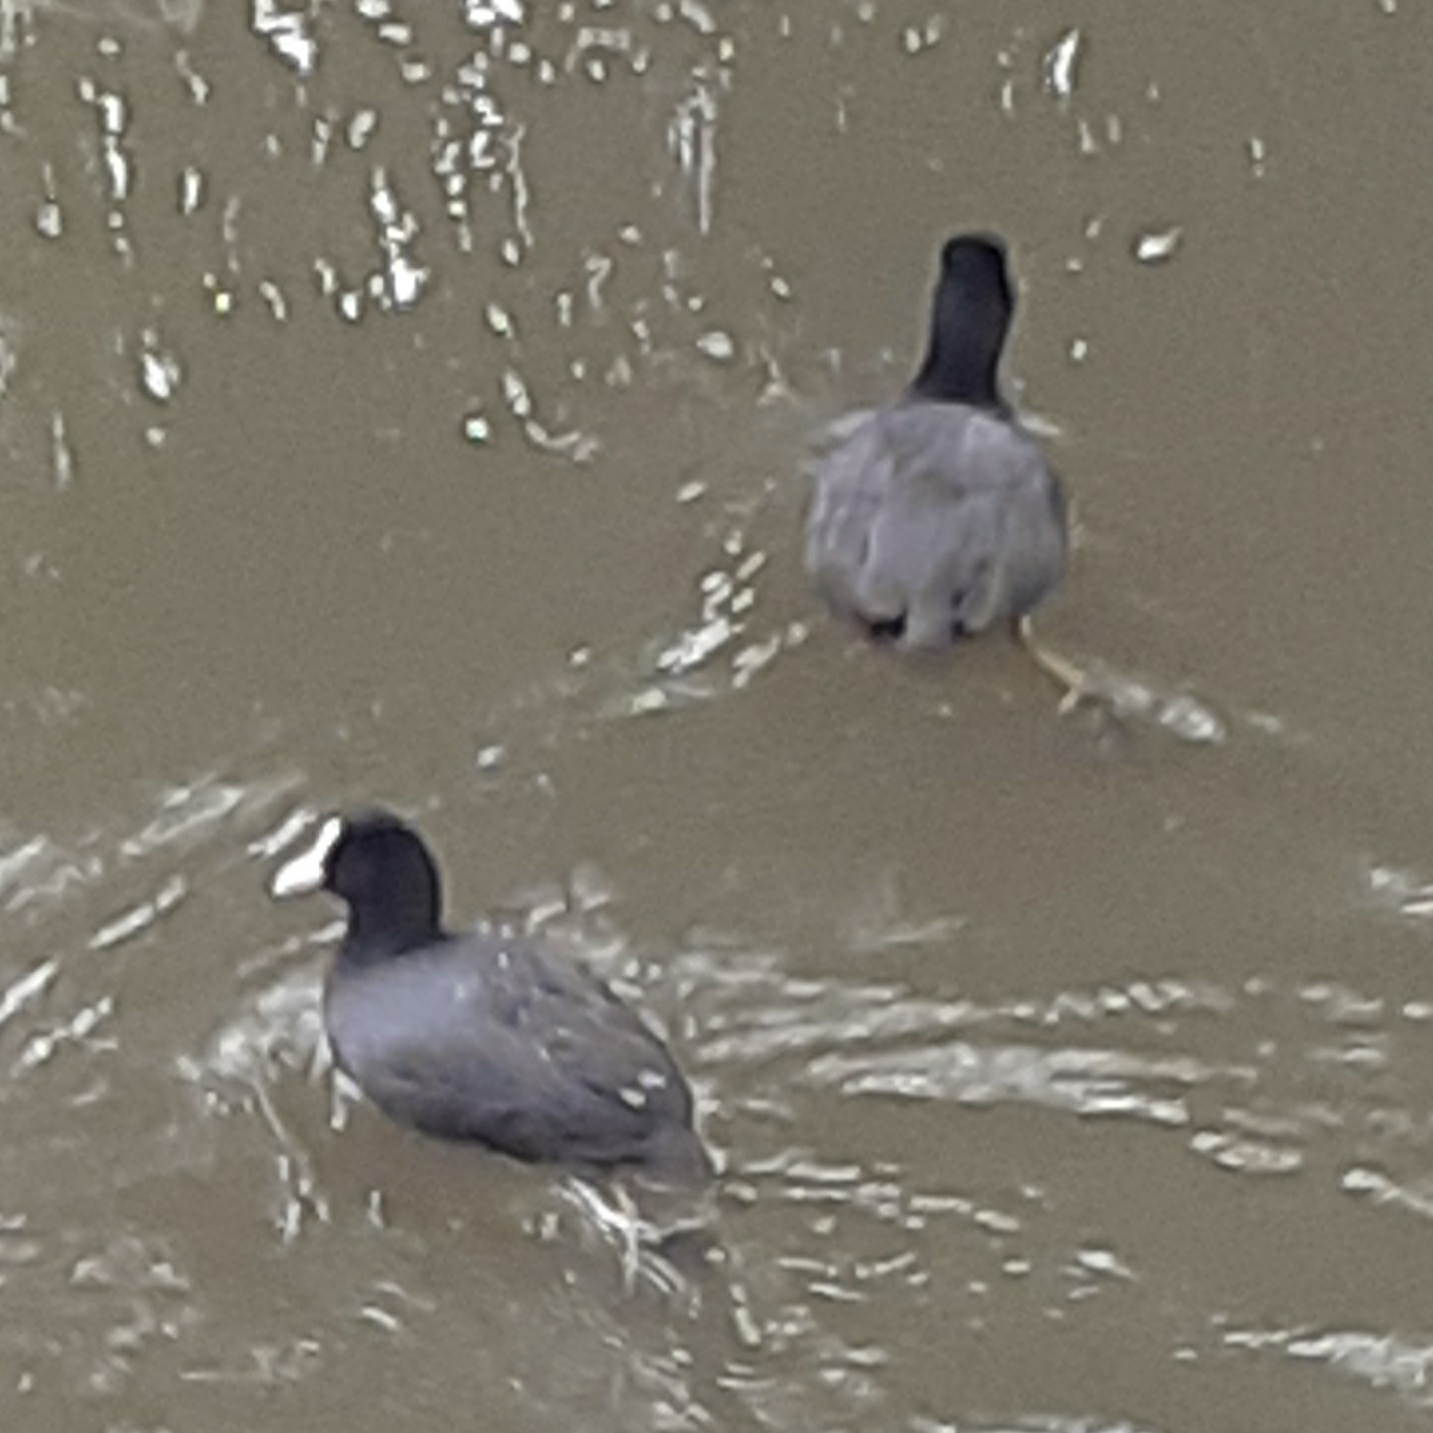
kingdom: Animalia
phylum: Chordata
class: Aves
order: Gruiformes
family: Rallidae
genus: Fulica
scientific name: Fulica atra
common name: Eurasian coot
